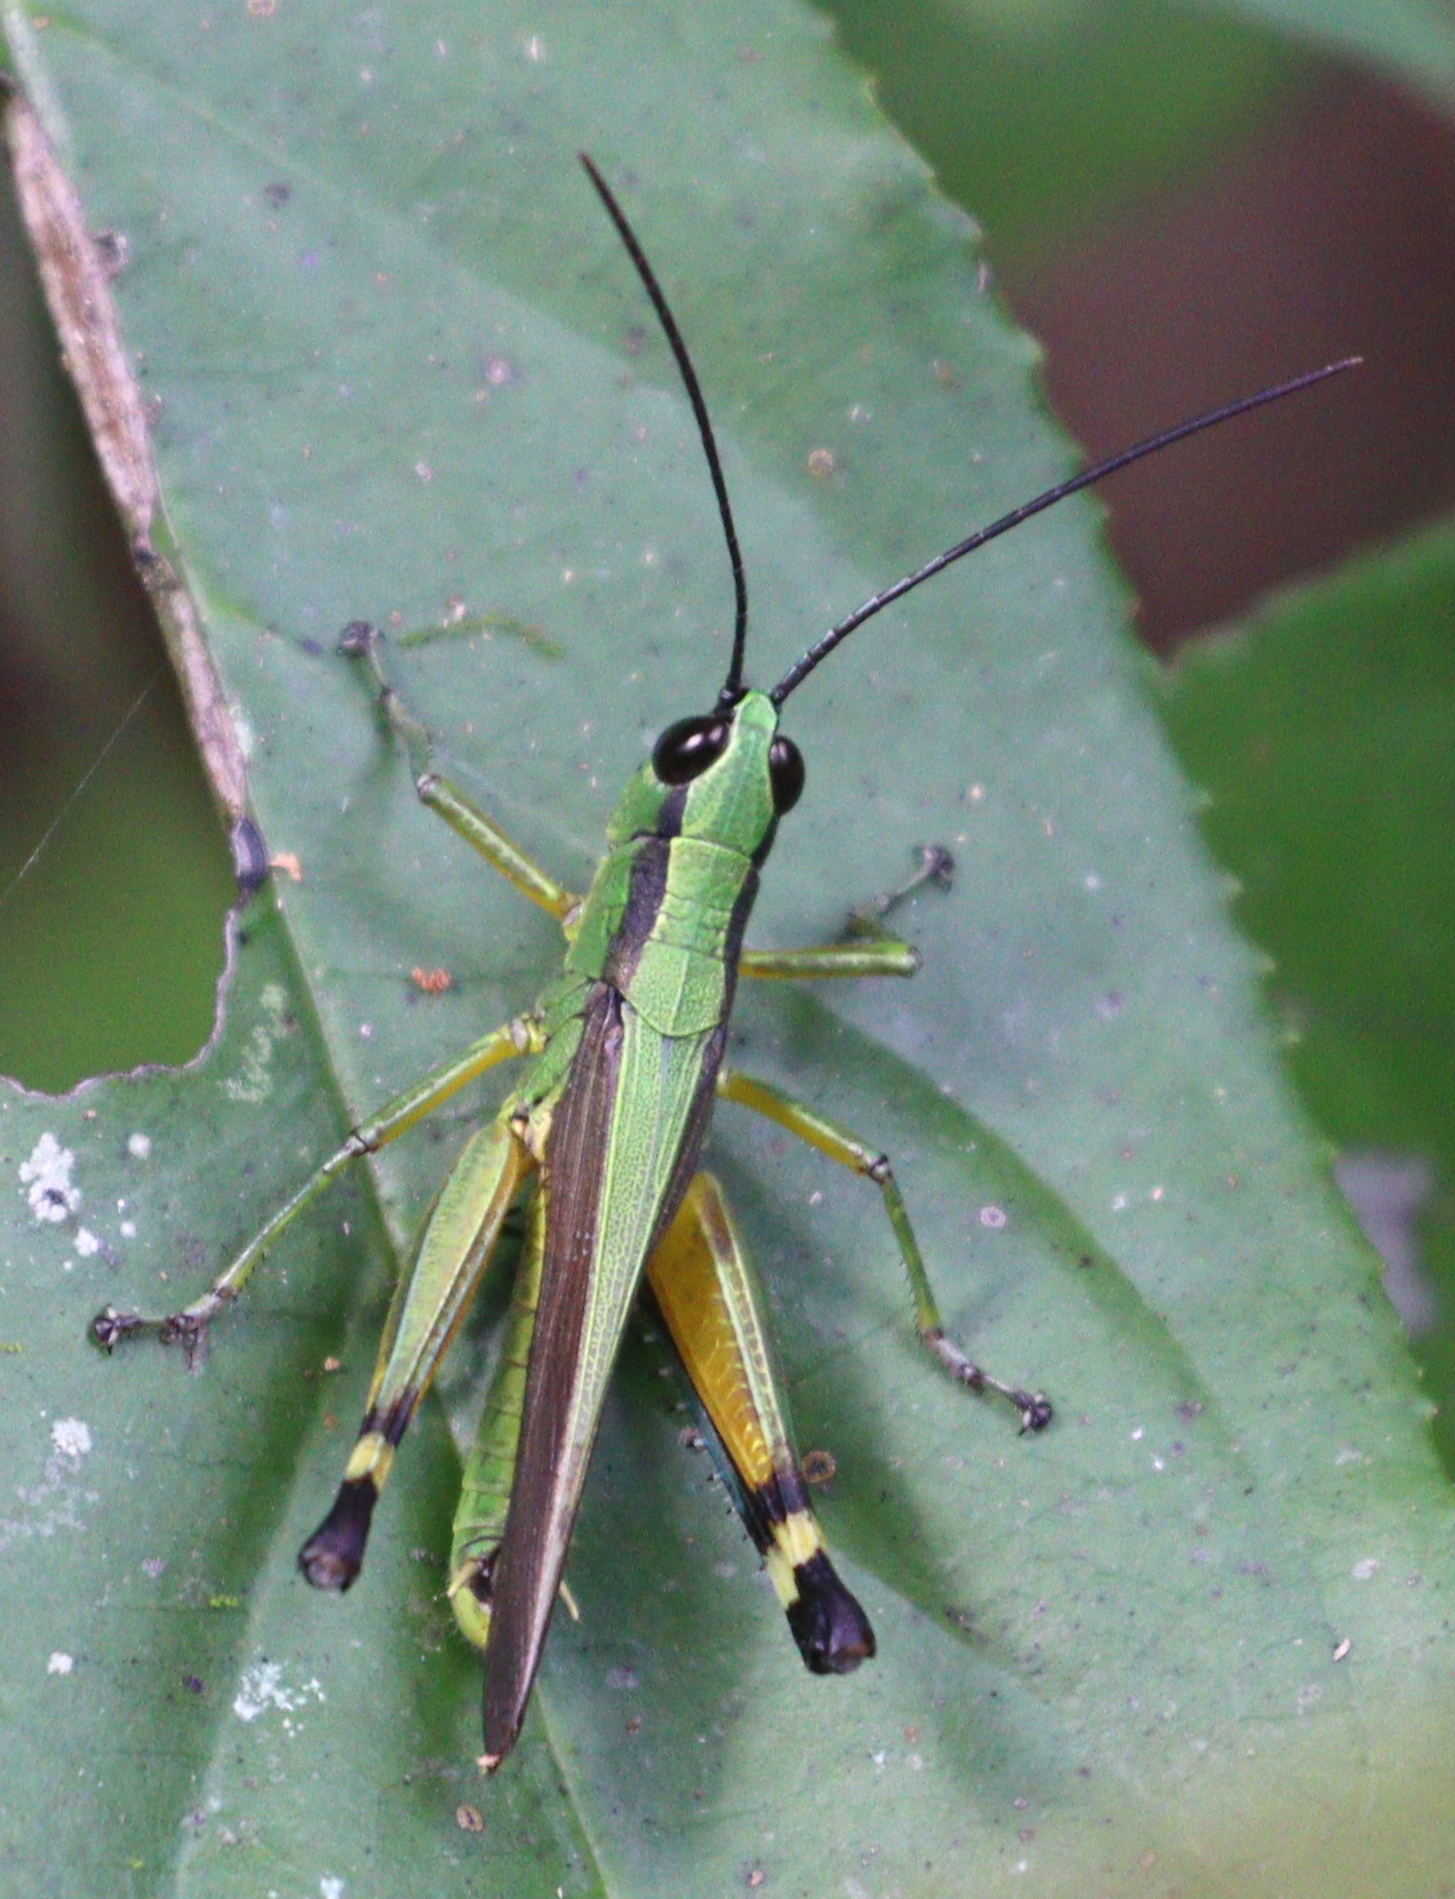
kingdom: Animalia
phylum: Arthropoda
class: Insecta
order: Orthoptera
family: Acrididae
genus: Ceracris
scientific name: Ceracris nigricornis
